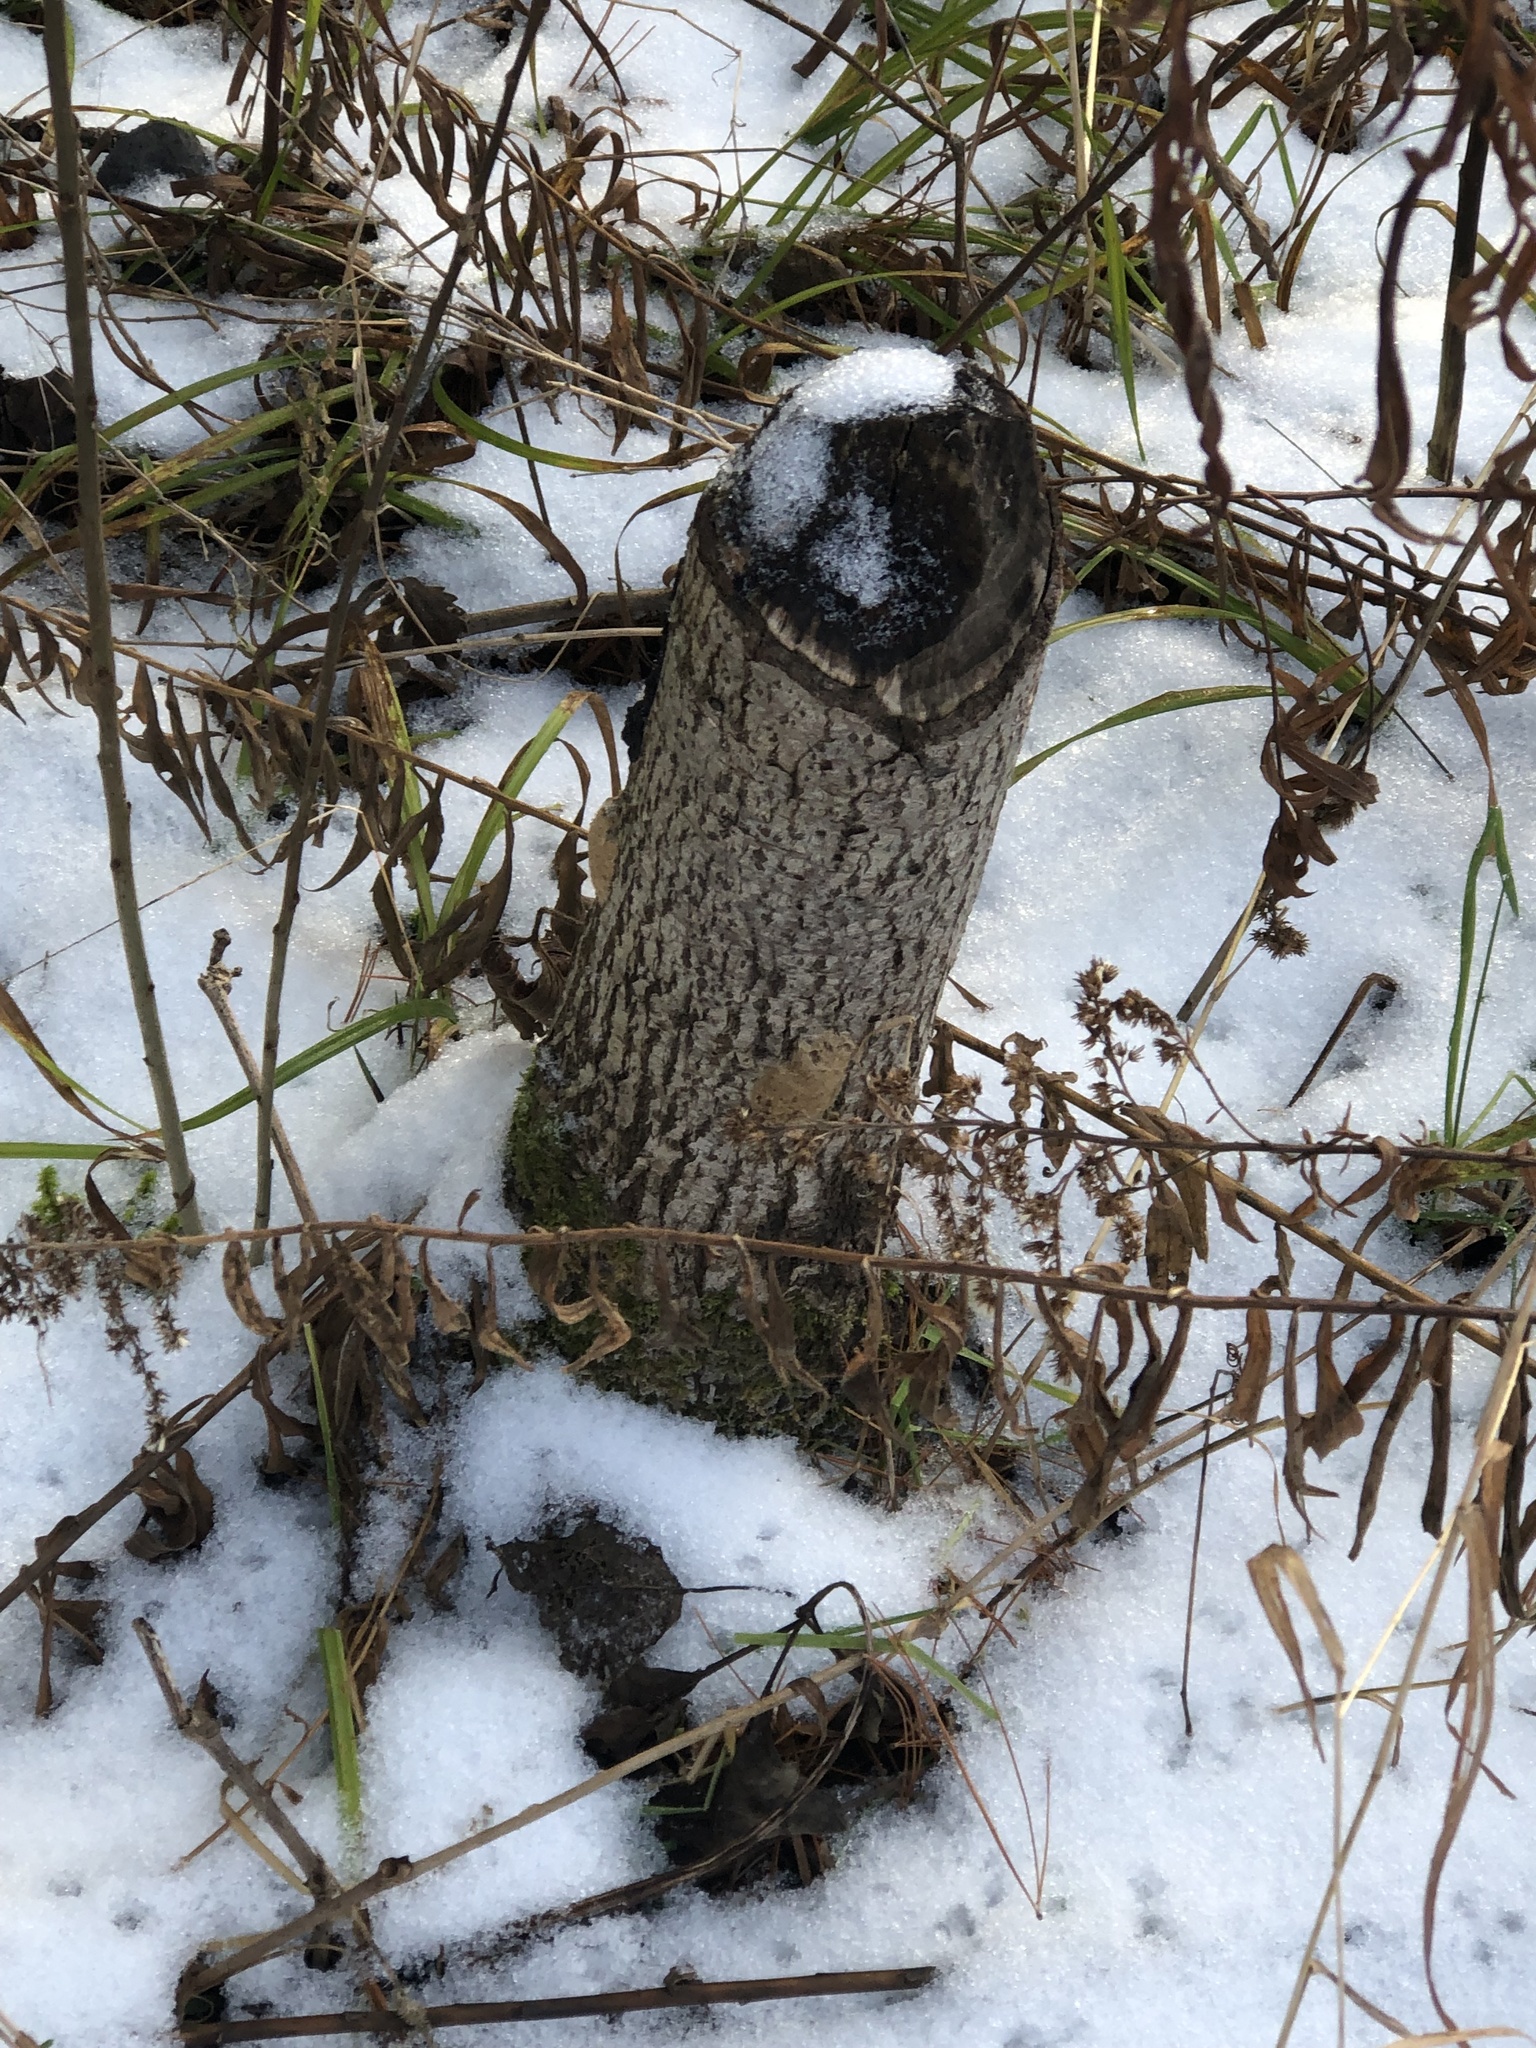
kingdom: Animalia
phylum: Chordata
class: Mammalia
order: Rodentia
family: Castoridae
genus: Castor
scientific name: Castor canadensis
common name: American beaver
